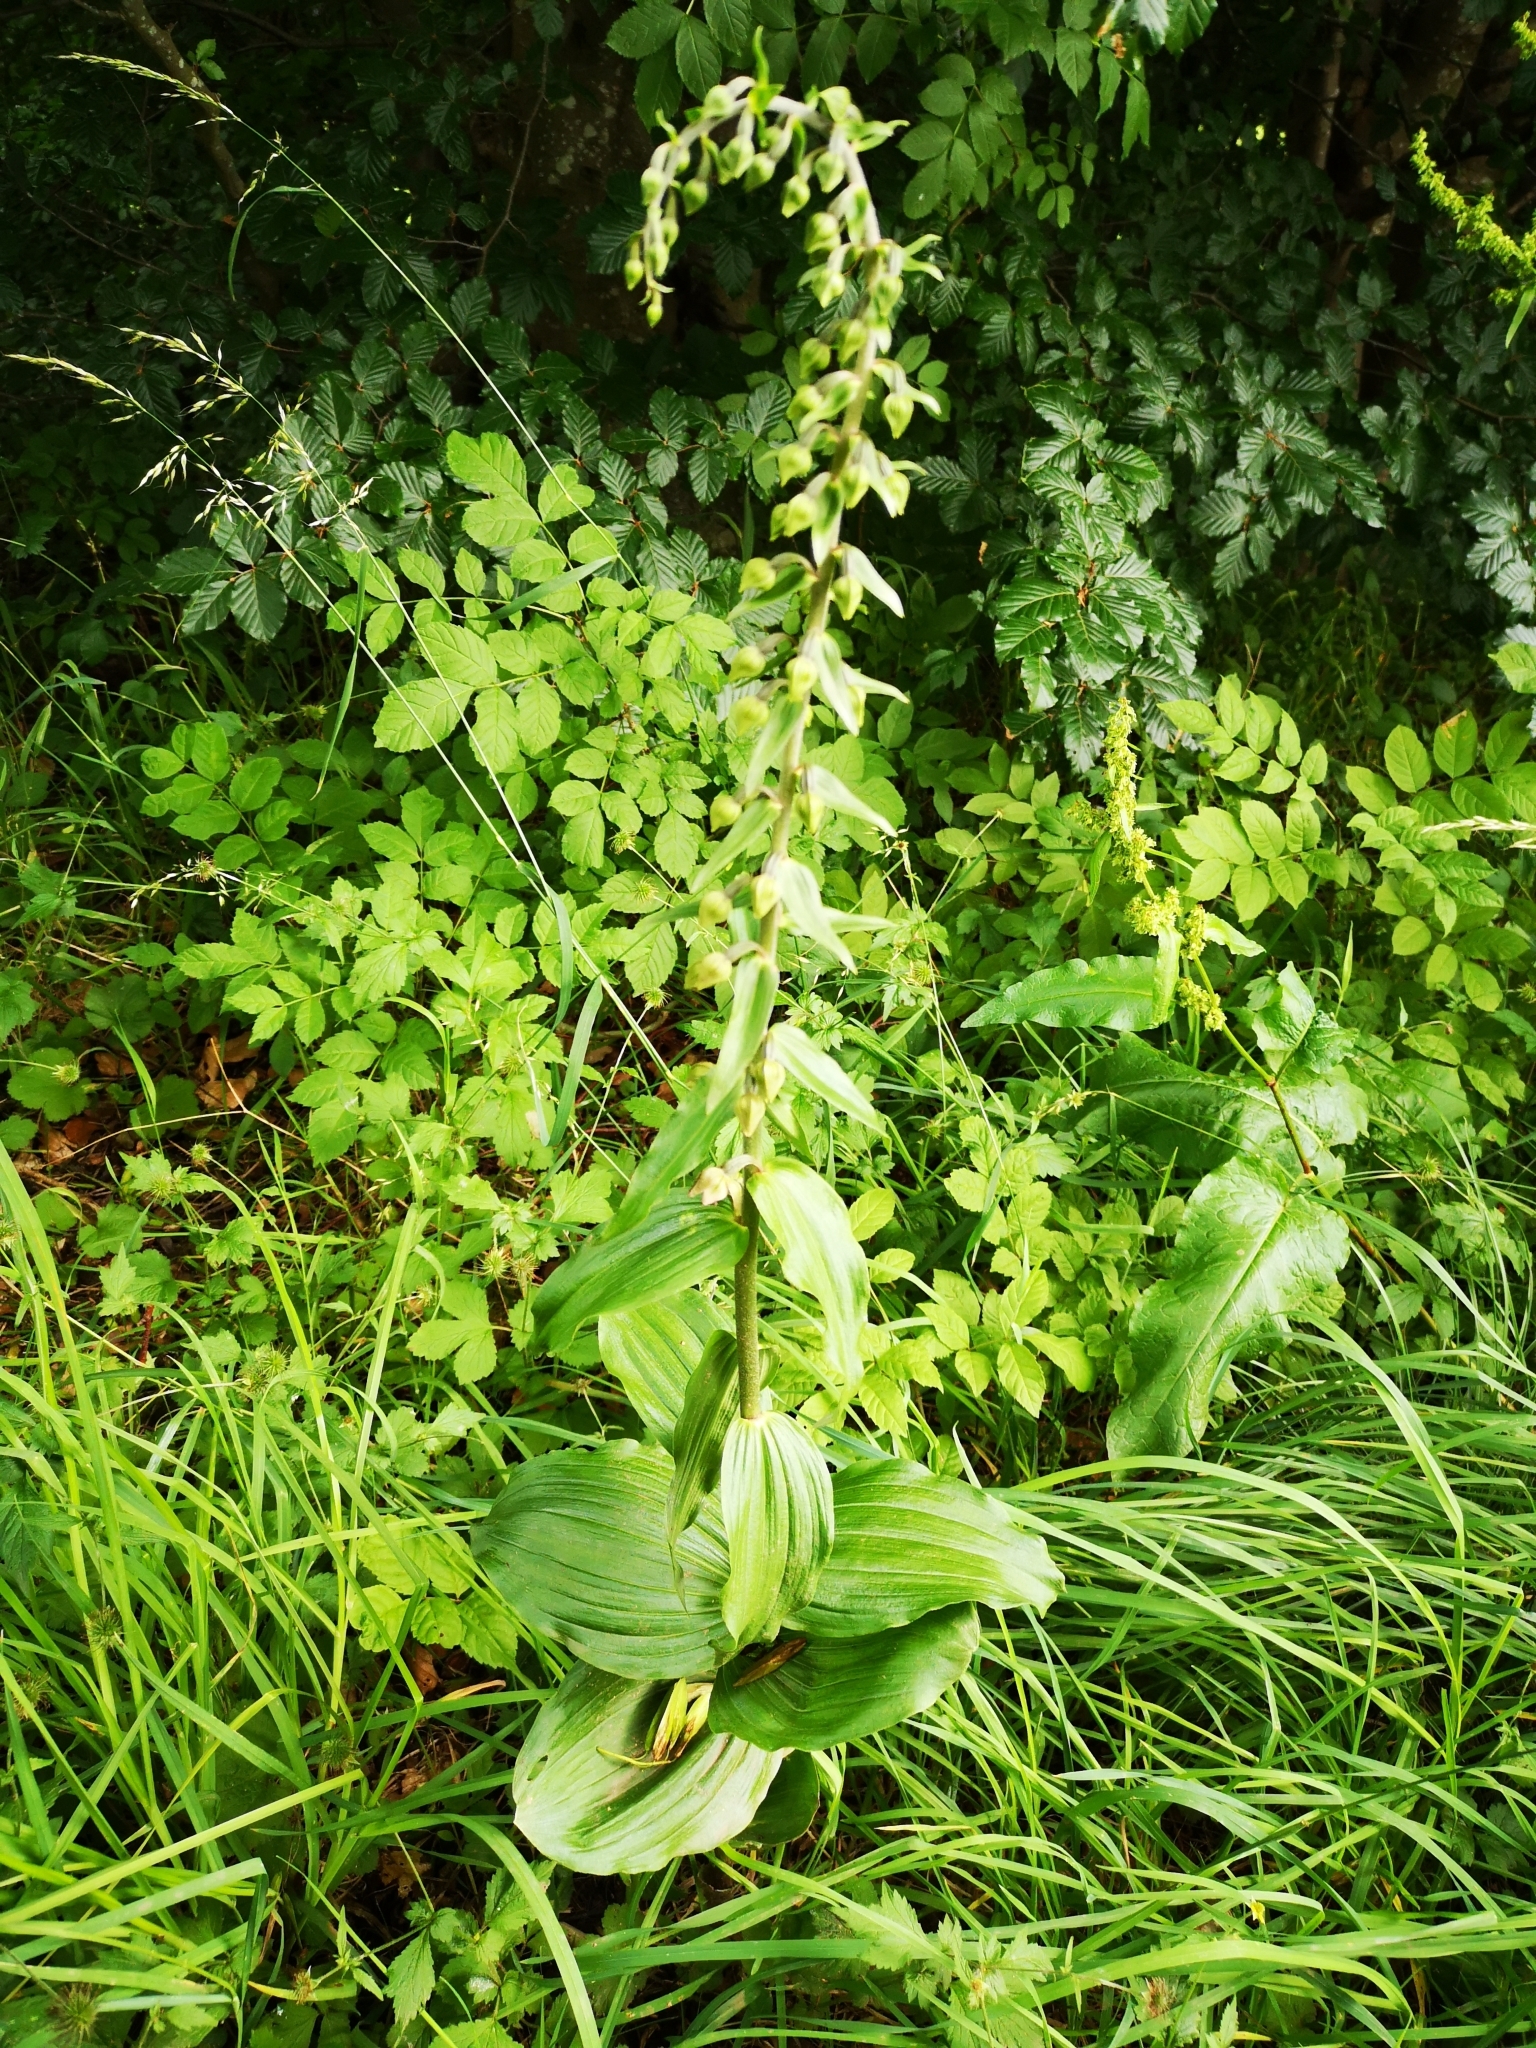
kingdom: Plantae
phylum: Tracheophyta
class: Liliopsida
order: Asparagales
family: Orchidaceae
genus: Epipactis
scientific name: Epipactis helleborine
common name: Broad-leaved helleborine
